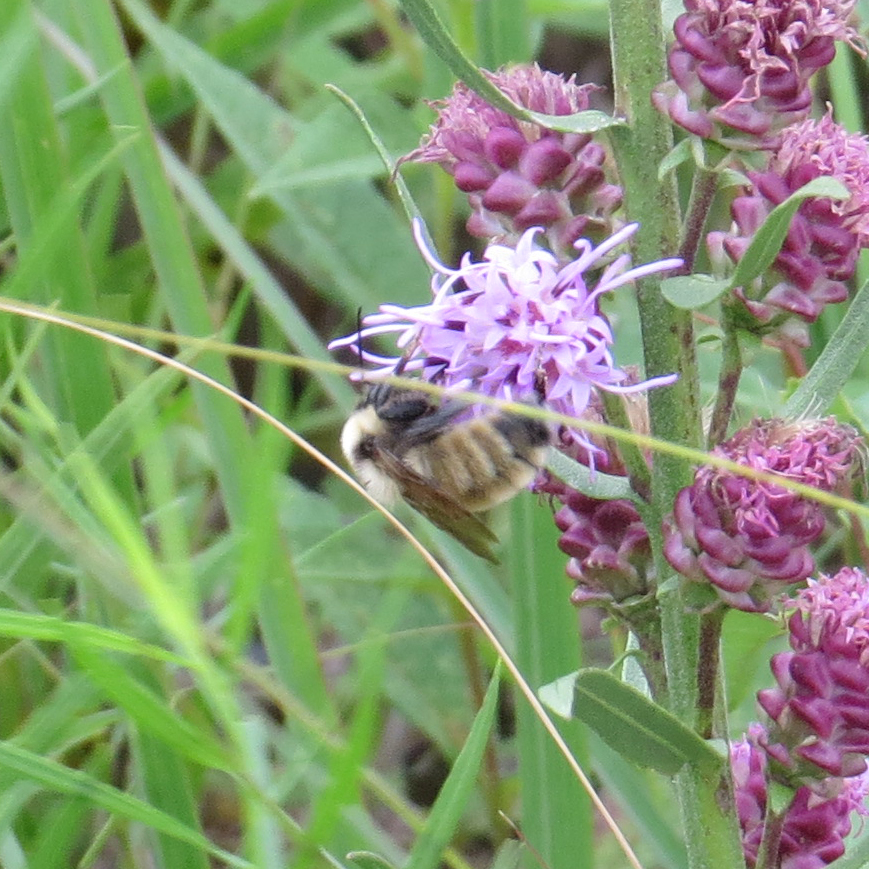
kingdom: Animalia
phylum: Arthropoda
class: Insecta
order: Hymenoptera
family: Apidae
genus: Bombus
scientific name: Bombus fervidus
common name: Yellow bumble bee
